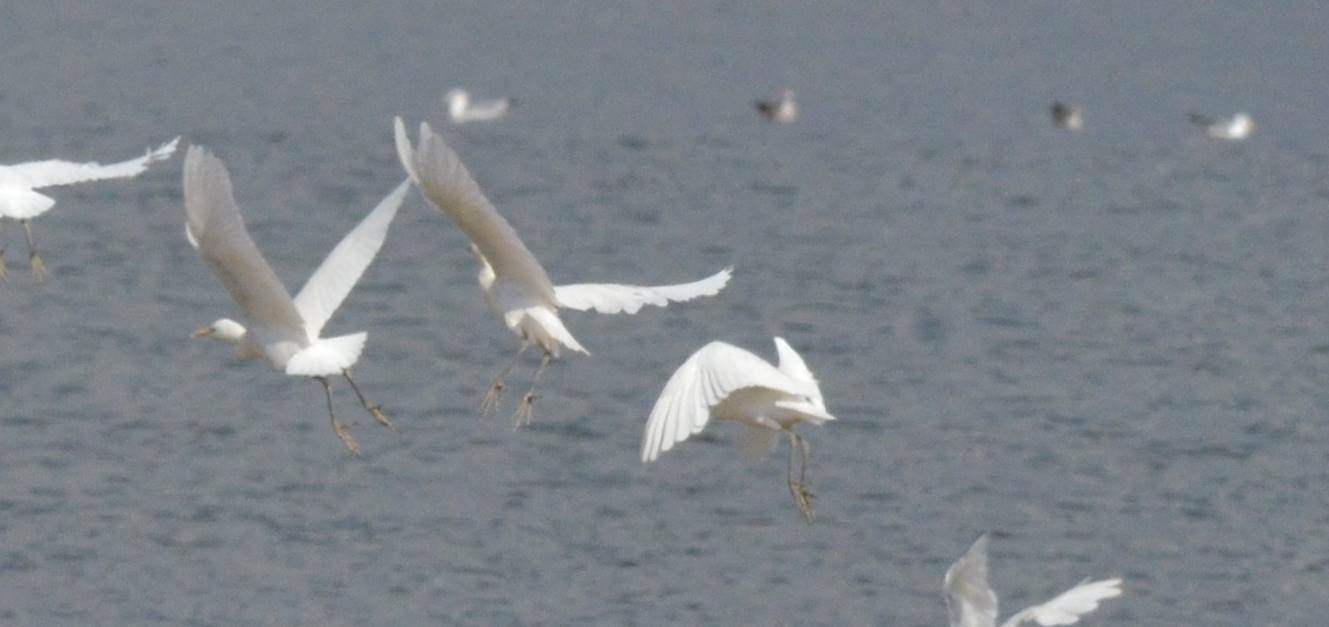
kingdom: Animalia
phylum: Chordata
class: Aves
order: Pelecaniformes
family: Ardeidae
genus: Bubulcus
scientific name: Bubulcus ibis
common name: Cattle egret
